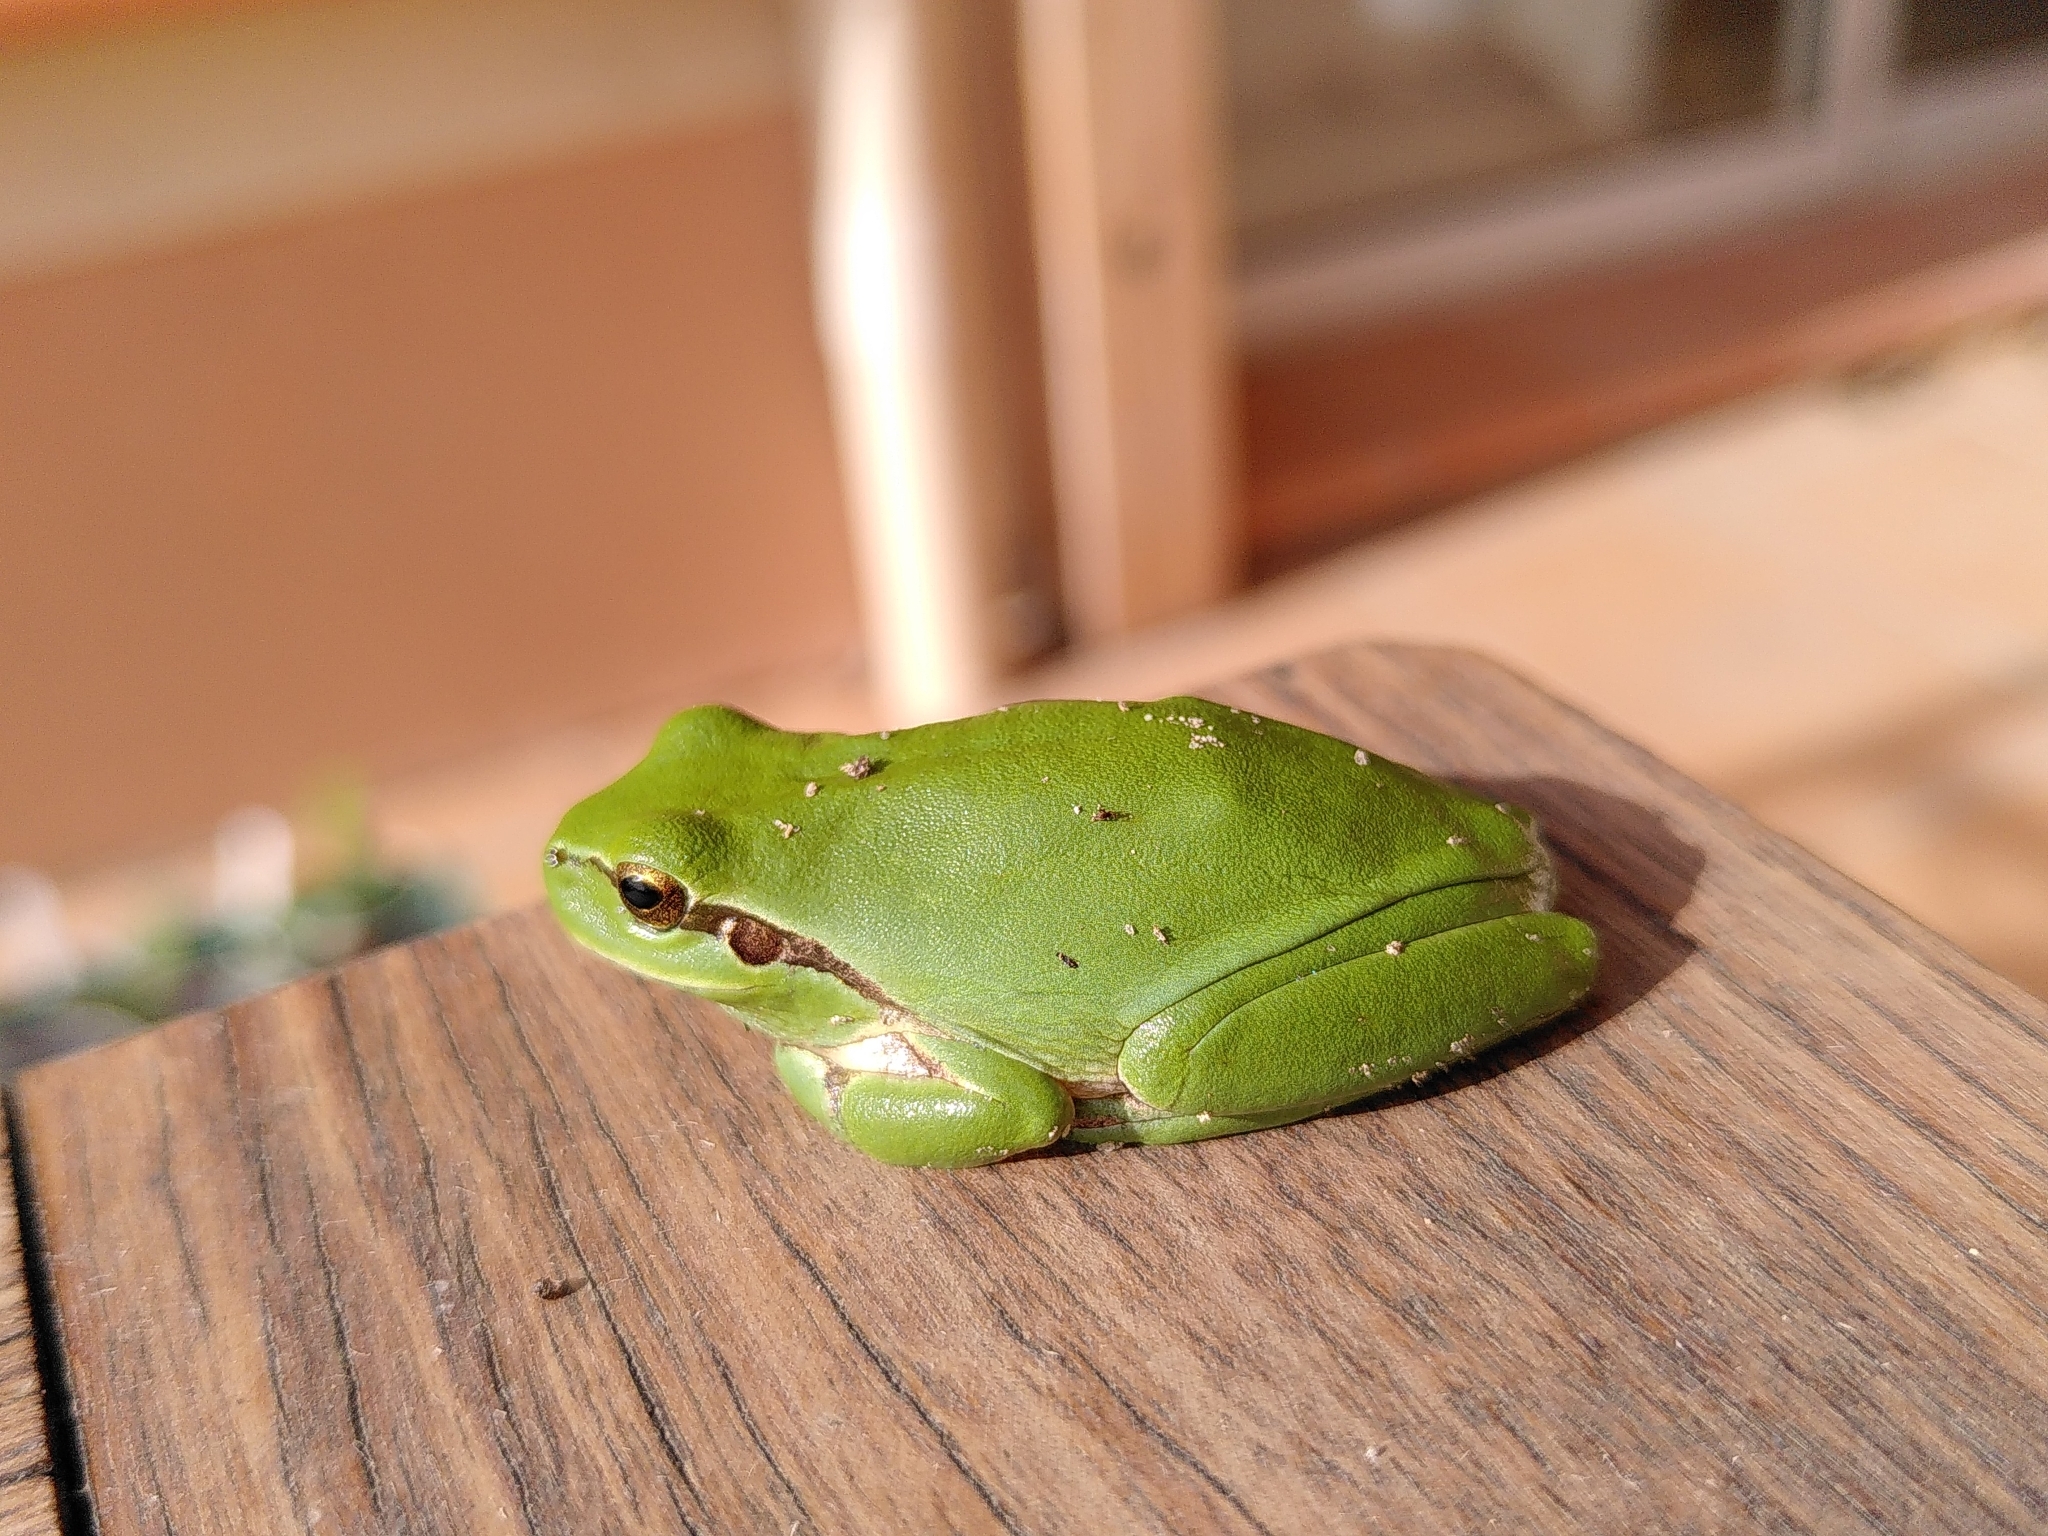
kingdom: Animalia
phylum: Chordata
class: Amphibia
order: Anura
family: Hylidae
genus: Hyla
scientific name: Hyla meridionalis
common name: Stripeless tree frog
